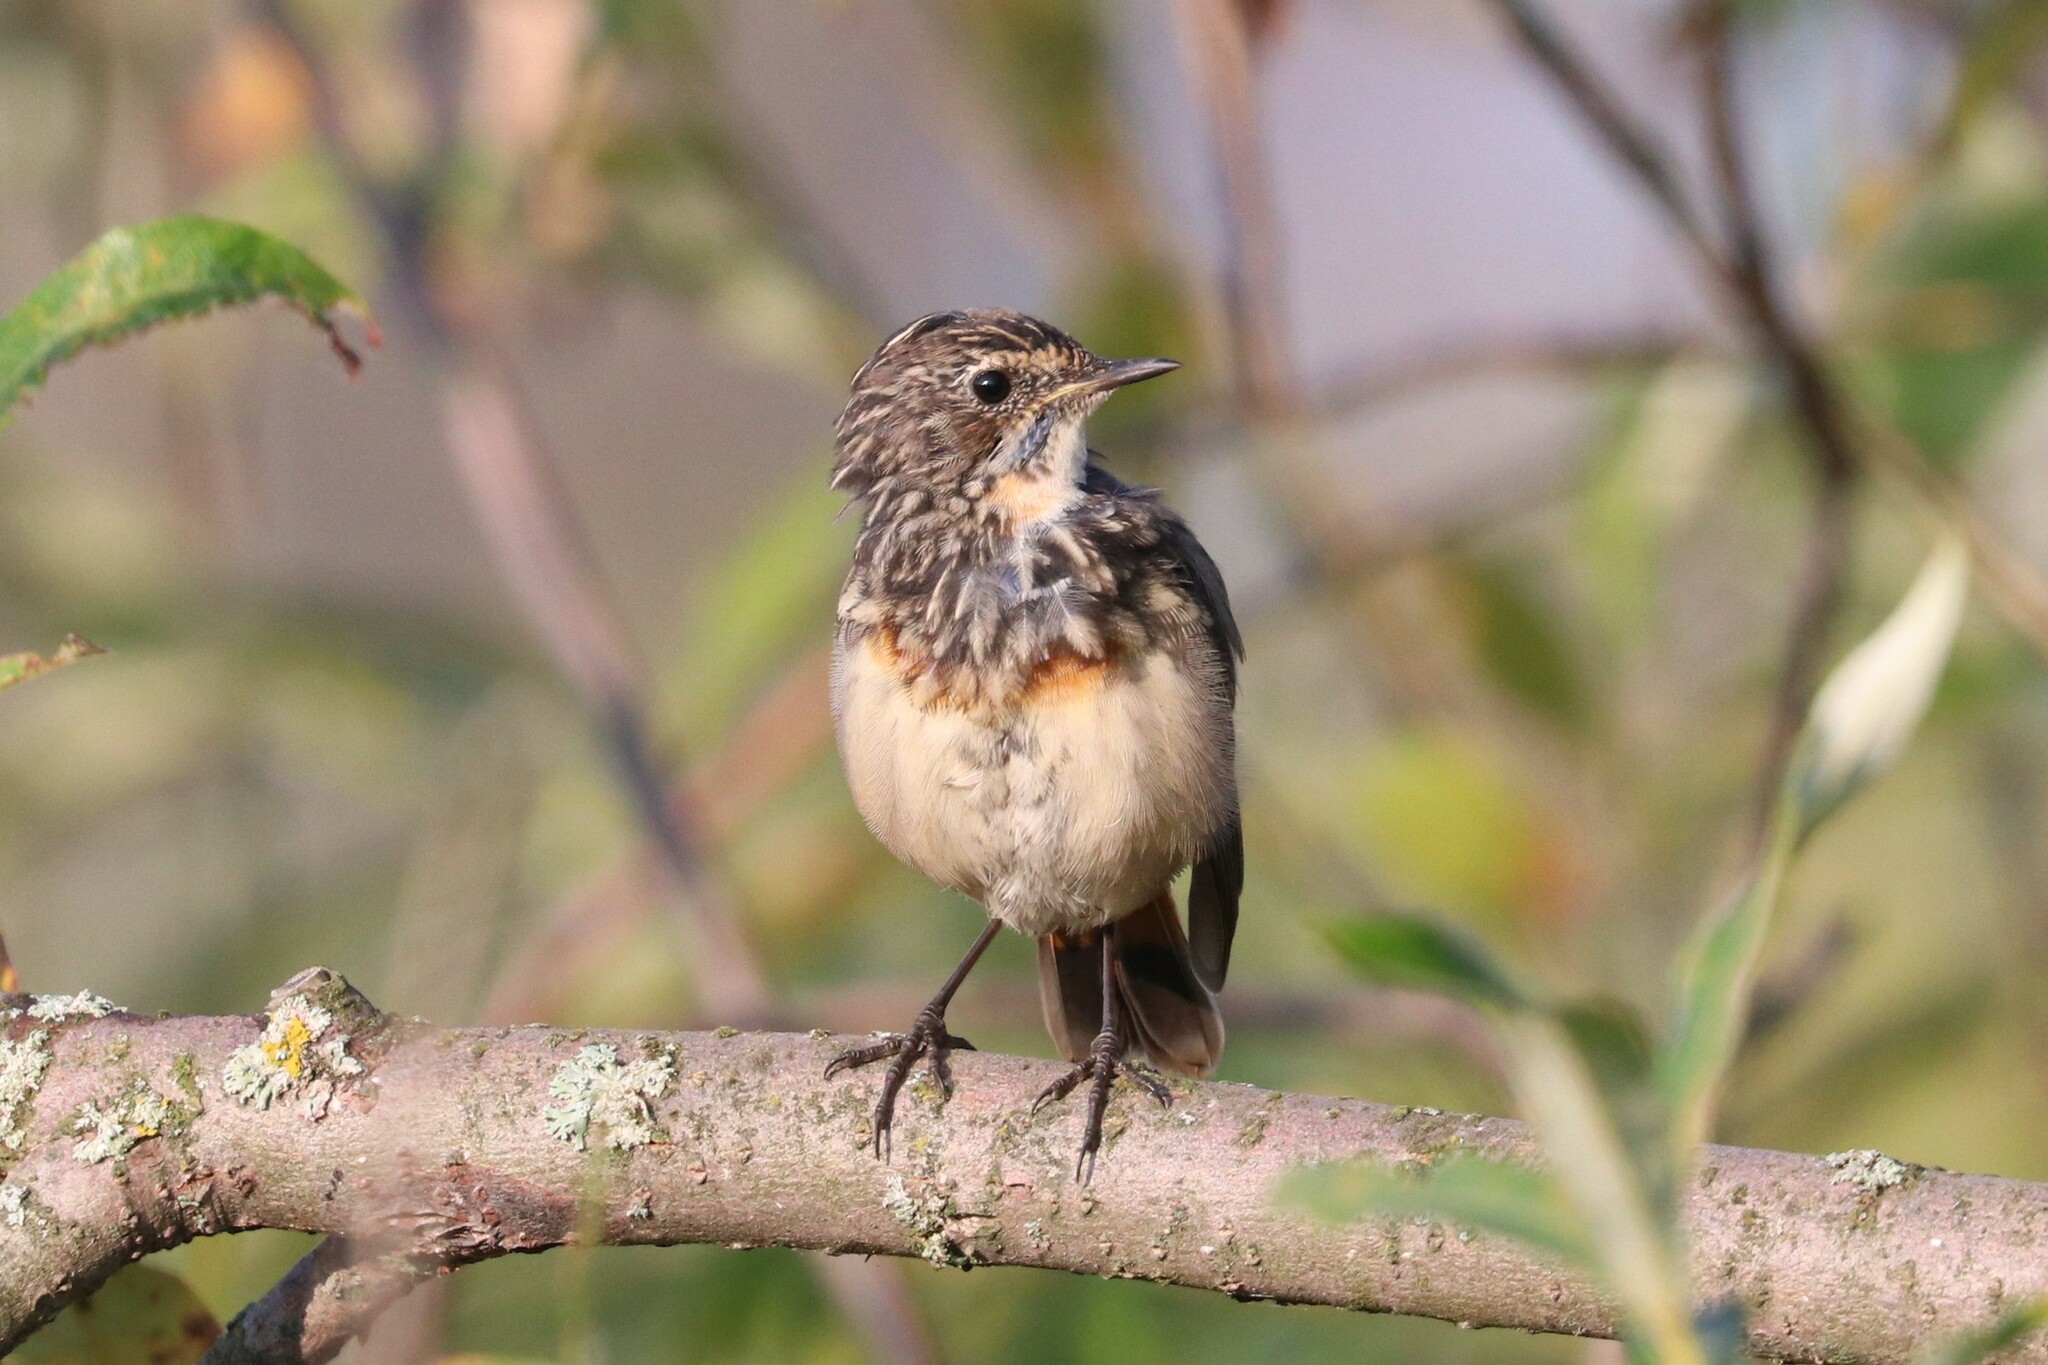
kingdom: Animalia
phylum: Chordata
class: Aves
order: Passeriformes
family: Muscicapidae
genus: Luscinia
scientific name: Luscinia svecica
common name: Bluethroat
